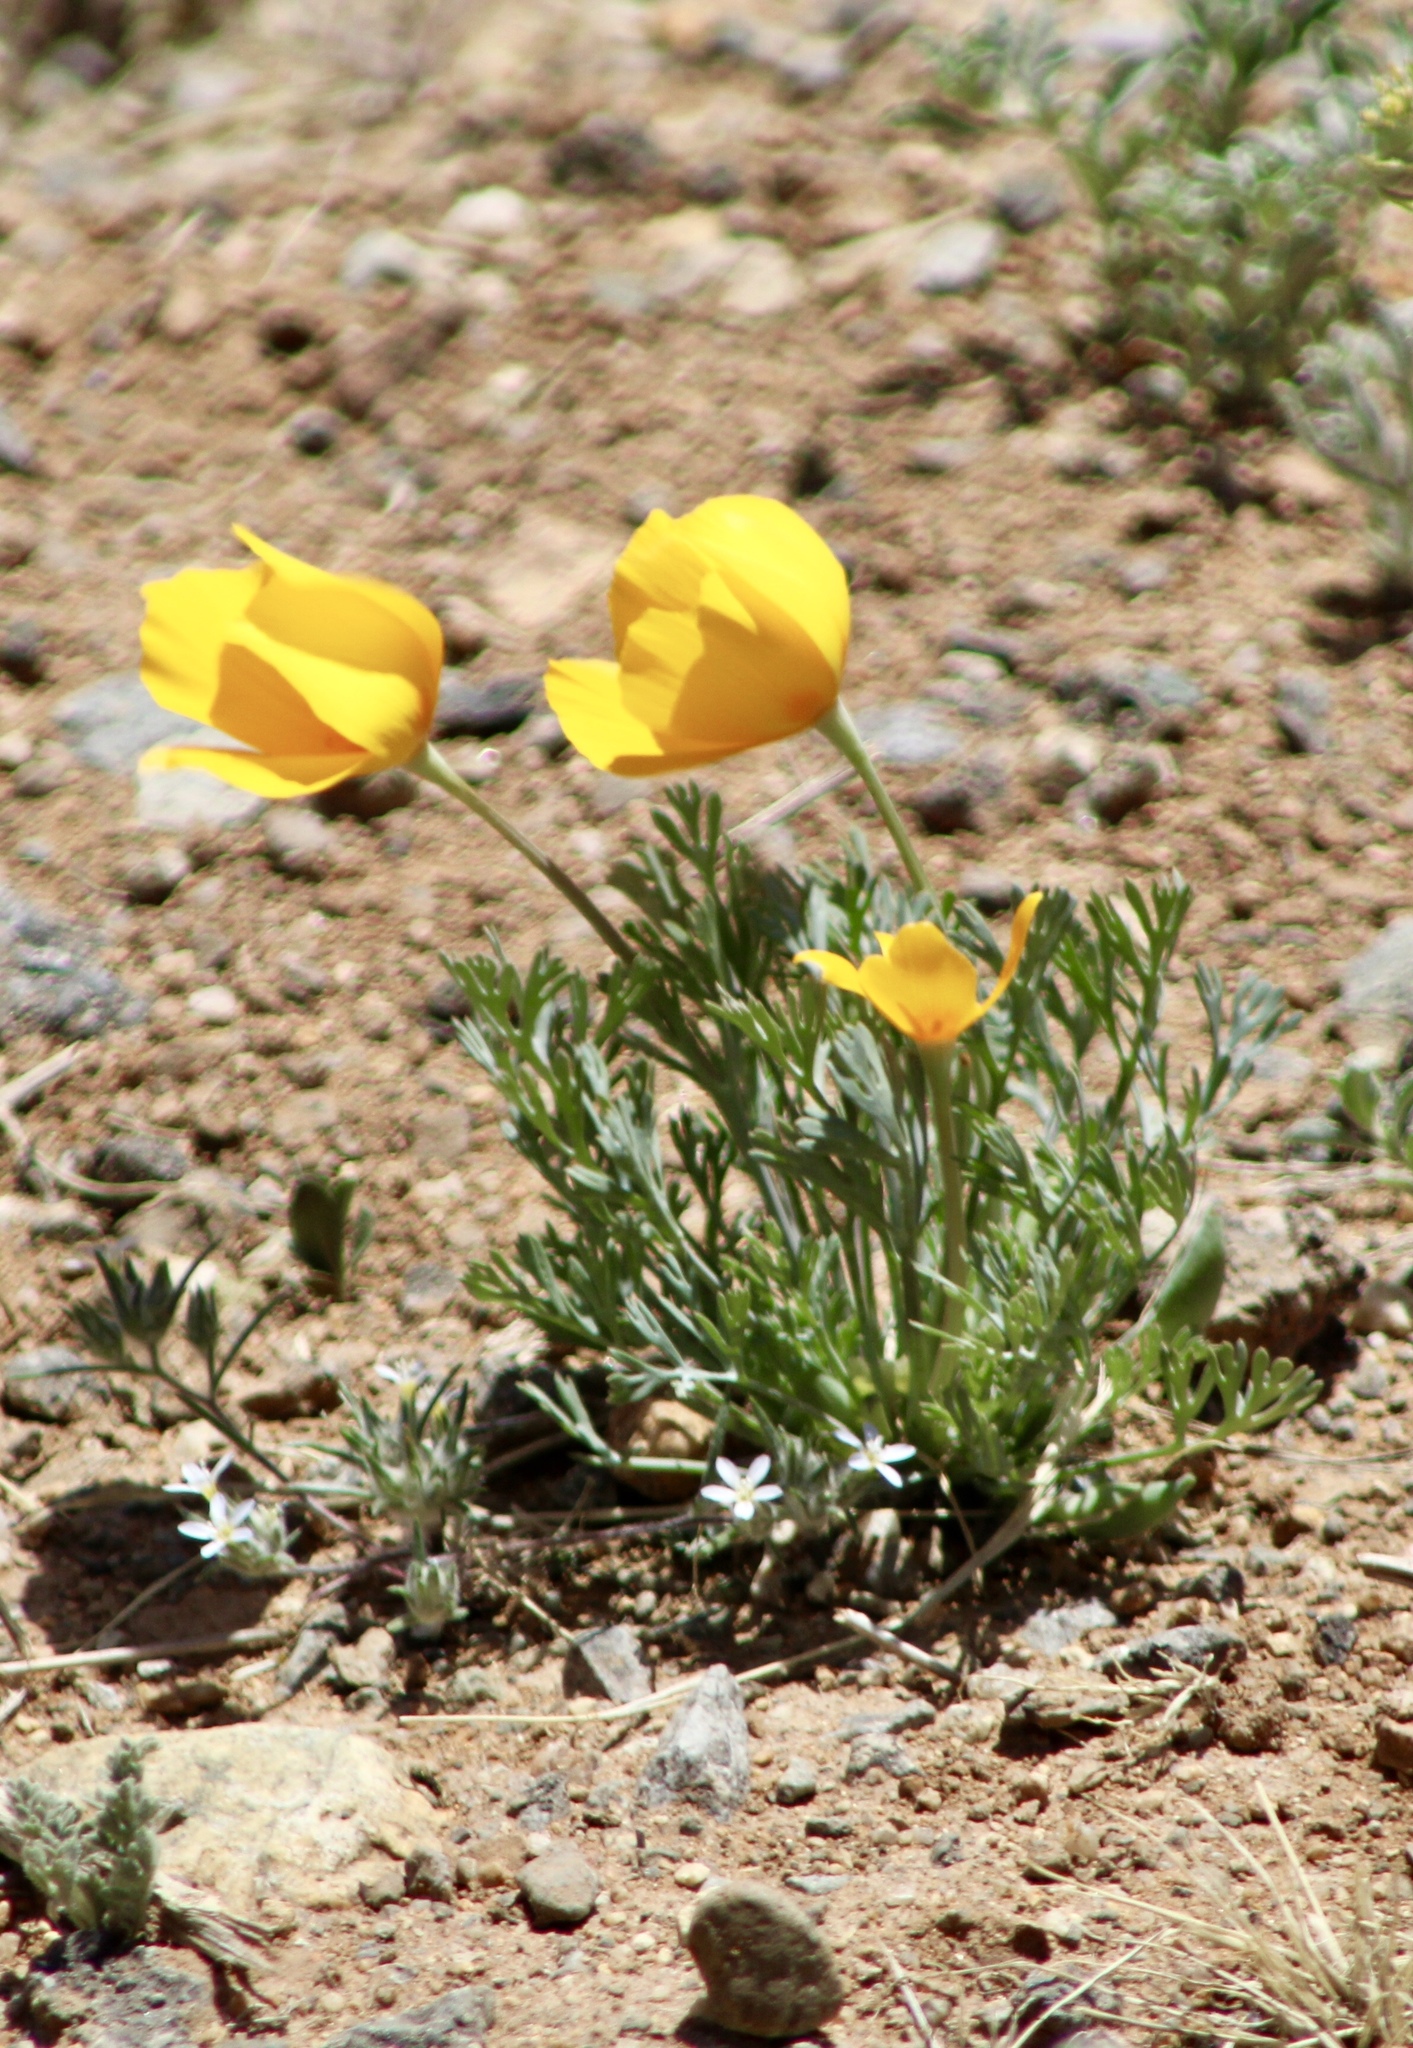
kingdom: Plantae
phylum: Tracheophyta
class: Magnoliopsida
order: Ranunculales
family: Papaveraceae
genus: Eschscholzia
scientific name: Eschscholzia californica
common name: California poppy
